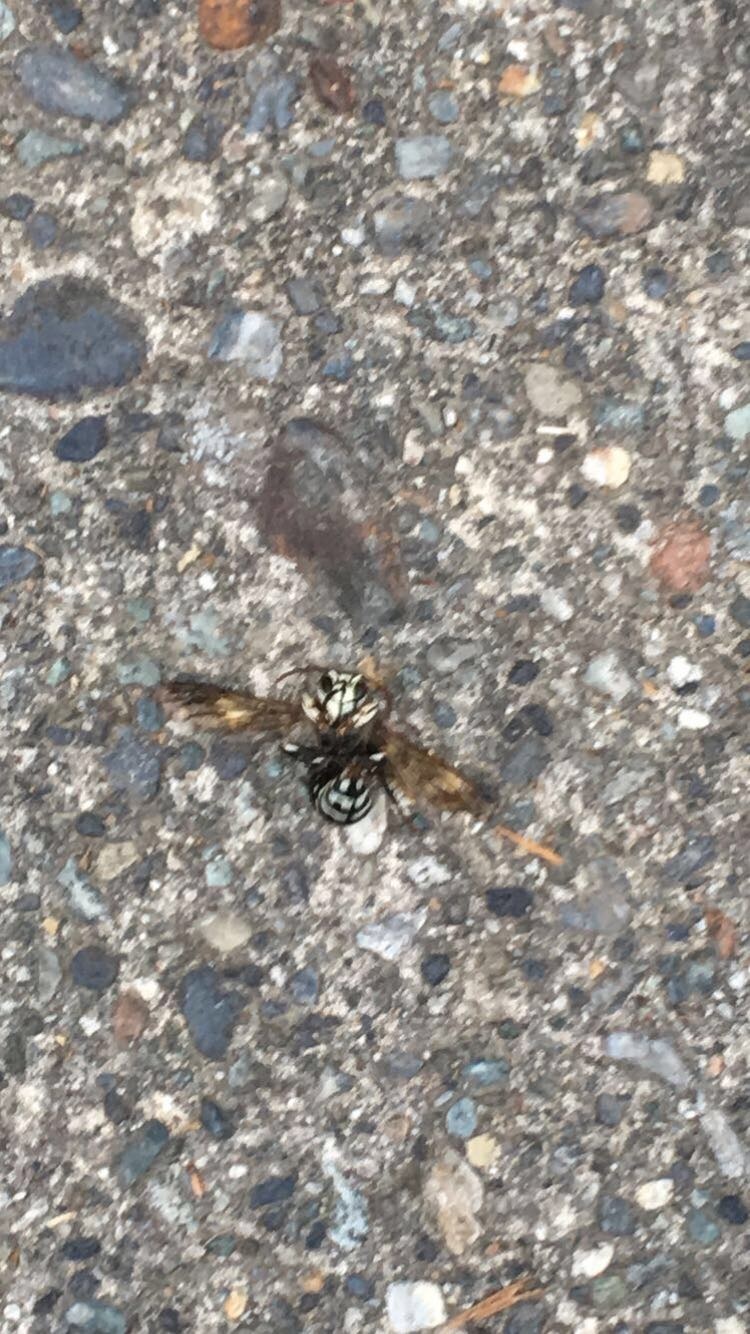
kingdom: Animalia
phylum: Arthropoda
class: Insecta
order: Hymenoptera
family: Vespidae
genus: Dolichovespula
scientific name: Dolichovespula maculata
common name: Bald-faced hornet
